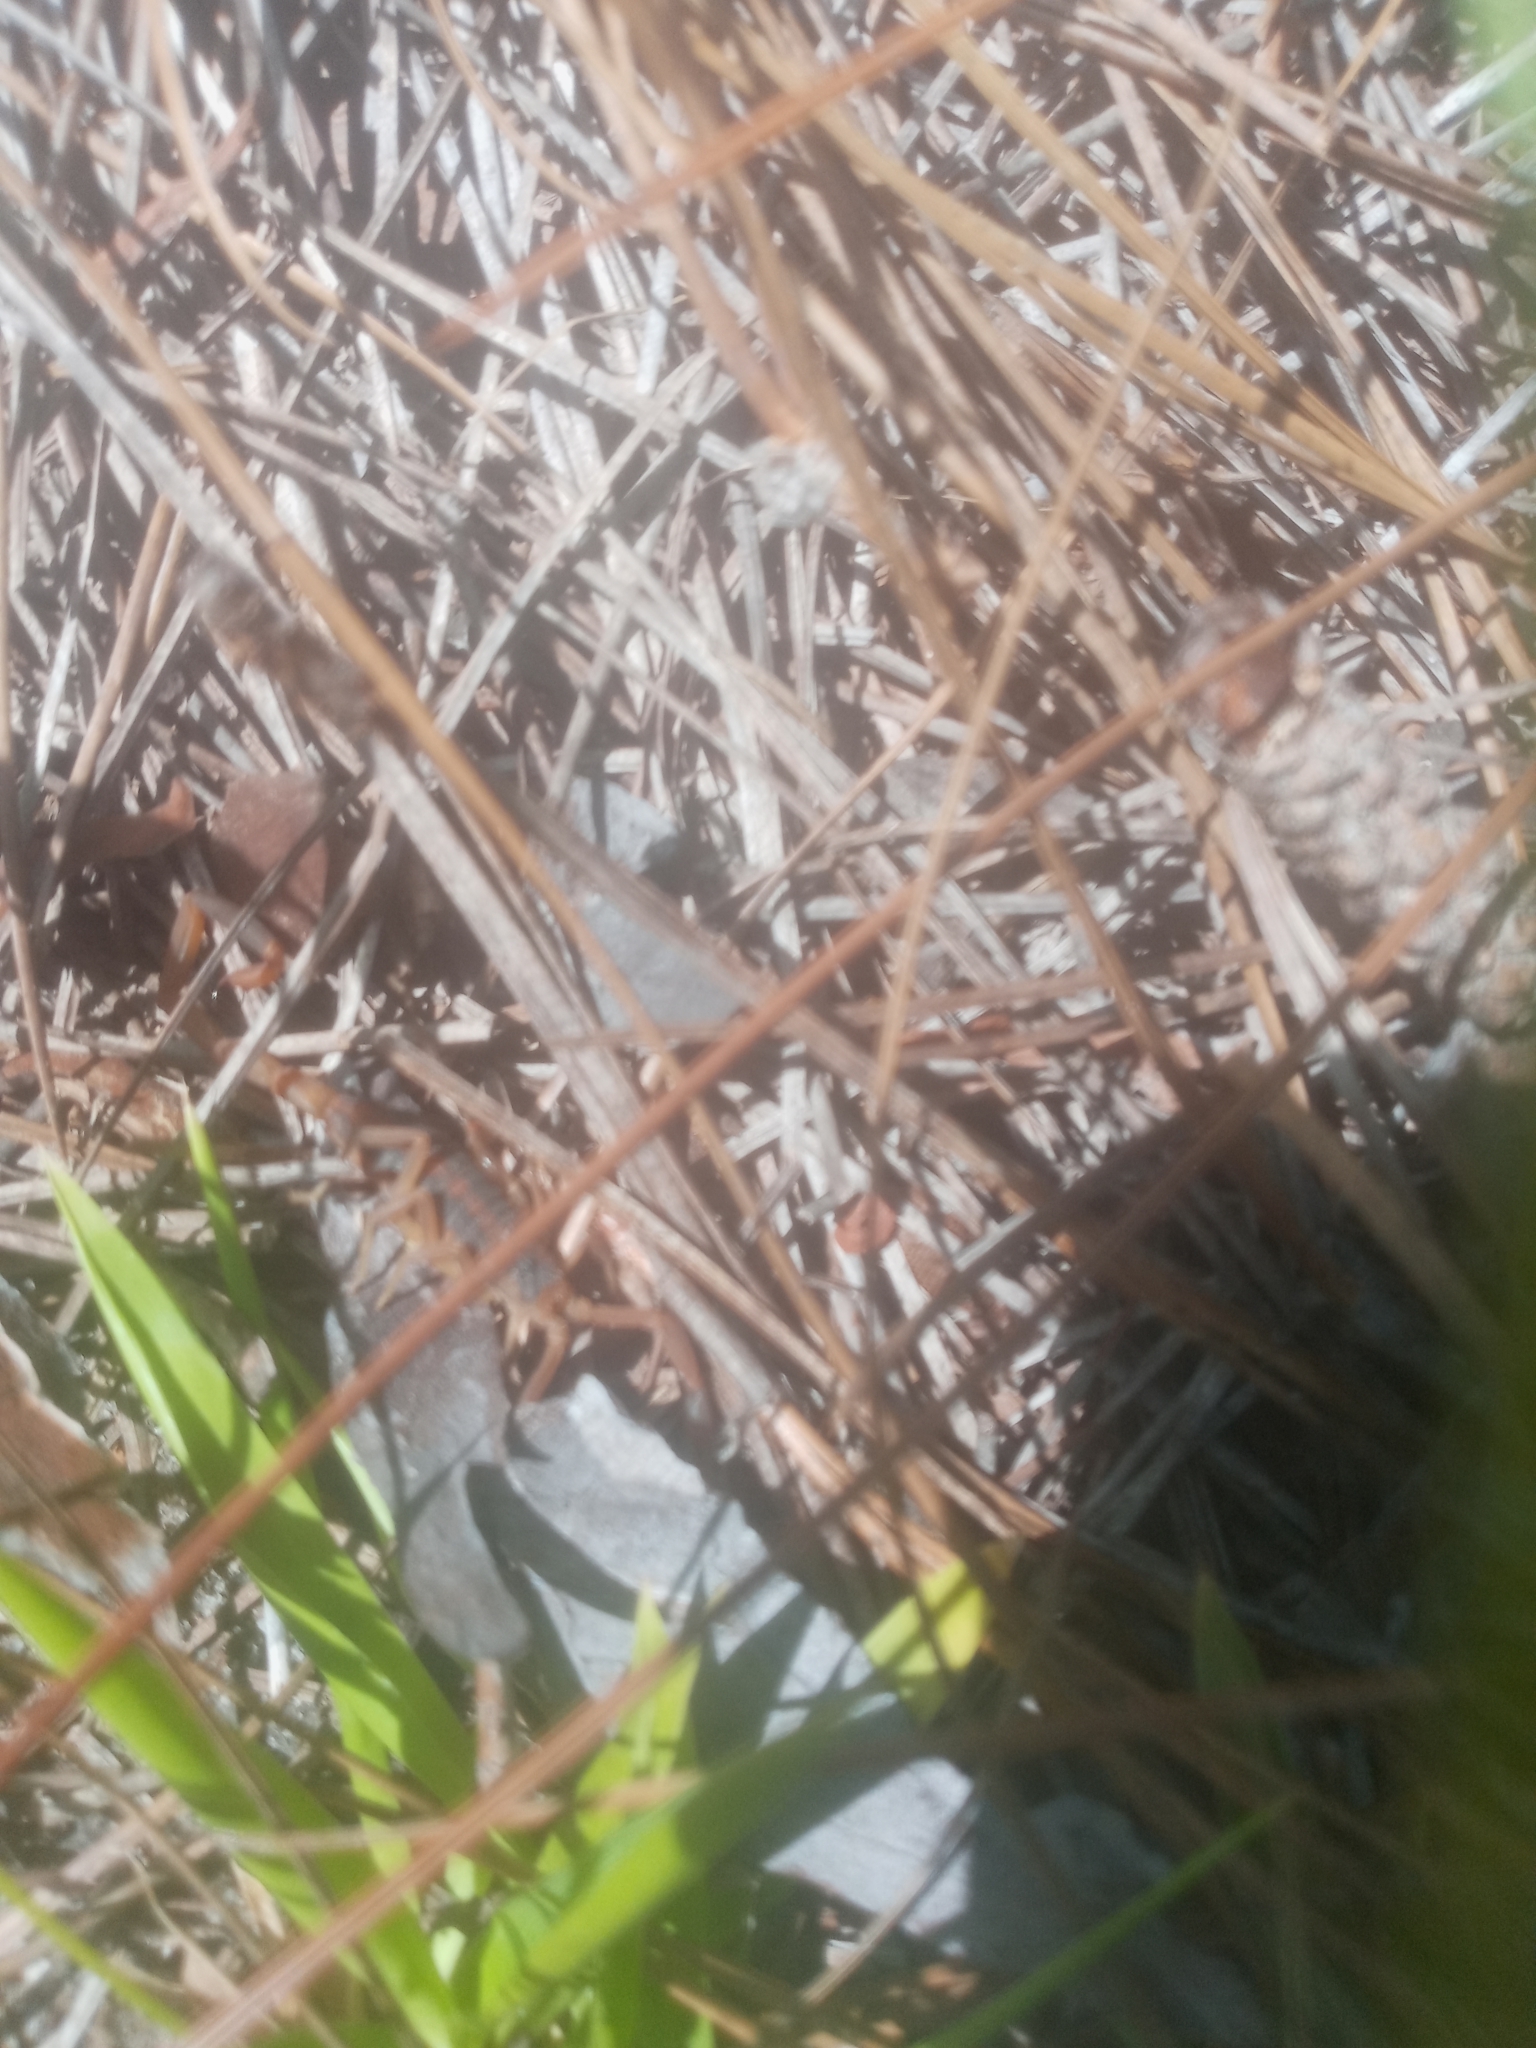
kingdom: Animalia
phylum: Arthropoda
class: Arachnida
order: Scorpiones
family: Buthidae
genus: Centruroides
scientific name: Centruroides vittatus
